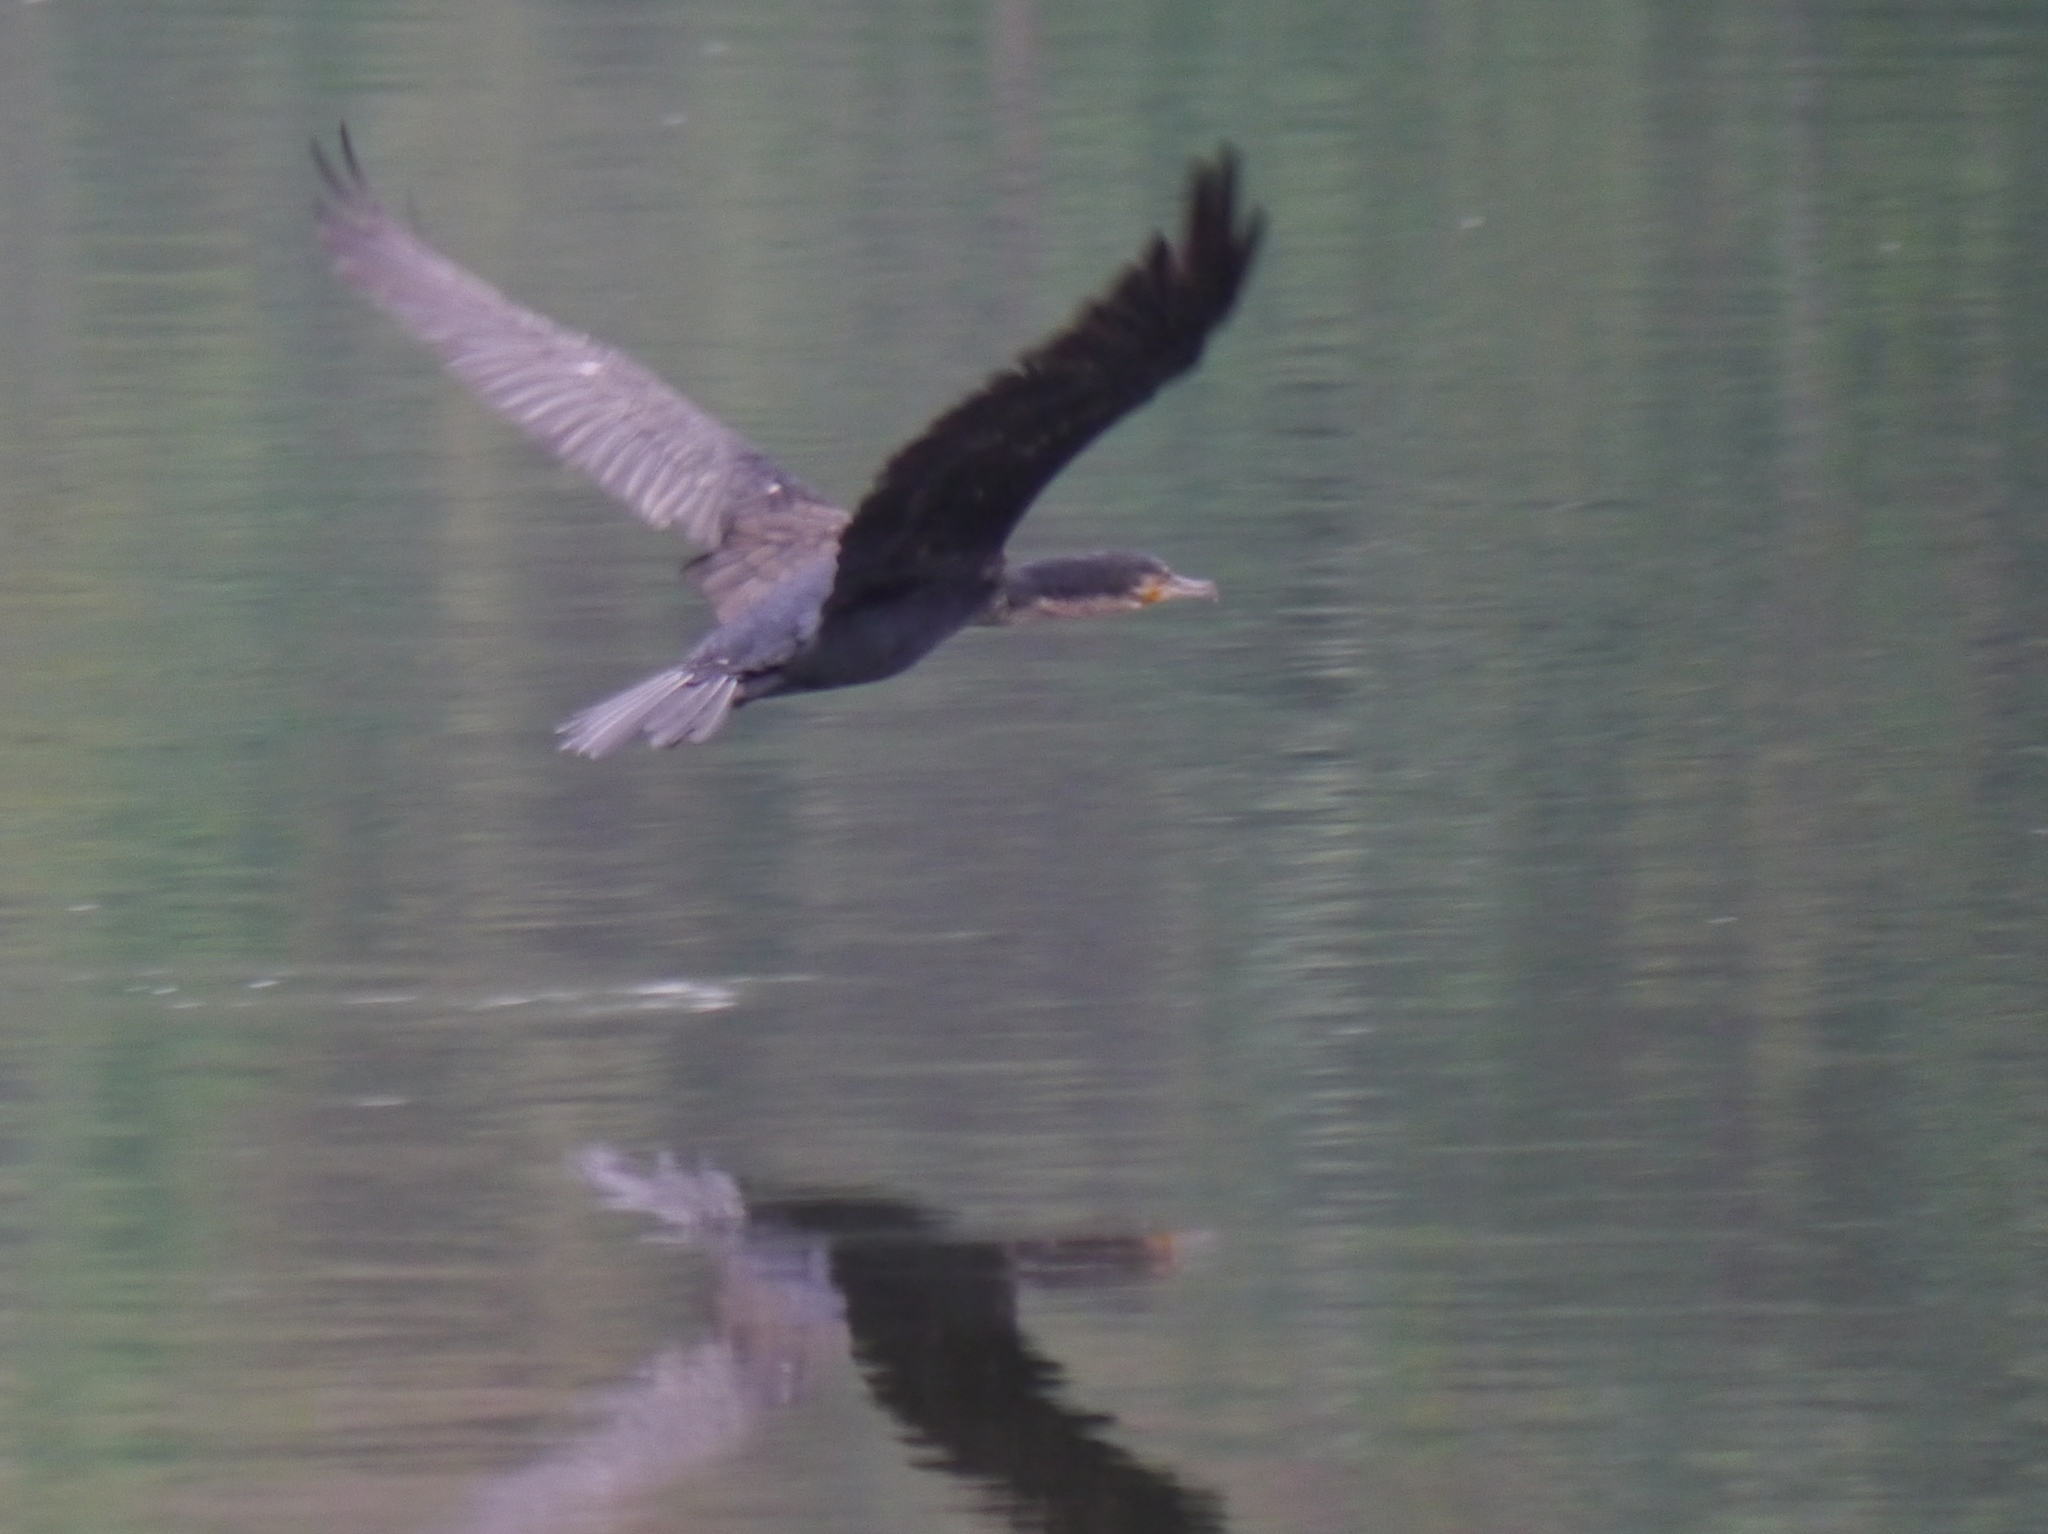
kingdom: Animalia
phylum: Chordata
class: Aves
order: Suliformes
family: Phalacrocoracidae
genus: Phalacrocorax
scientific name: Phalacrocorax carbo
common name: Great cormorant
